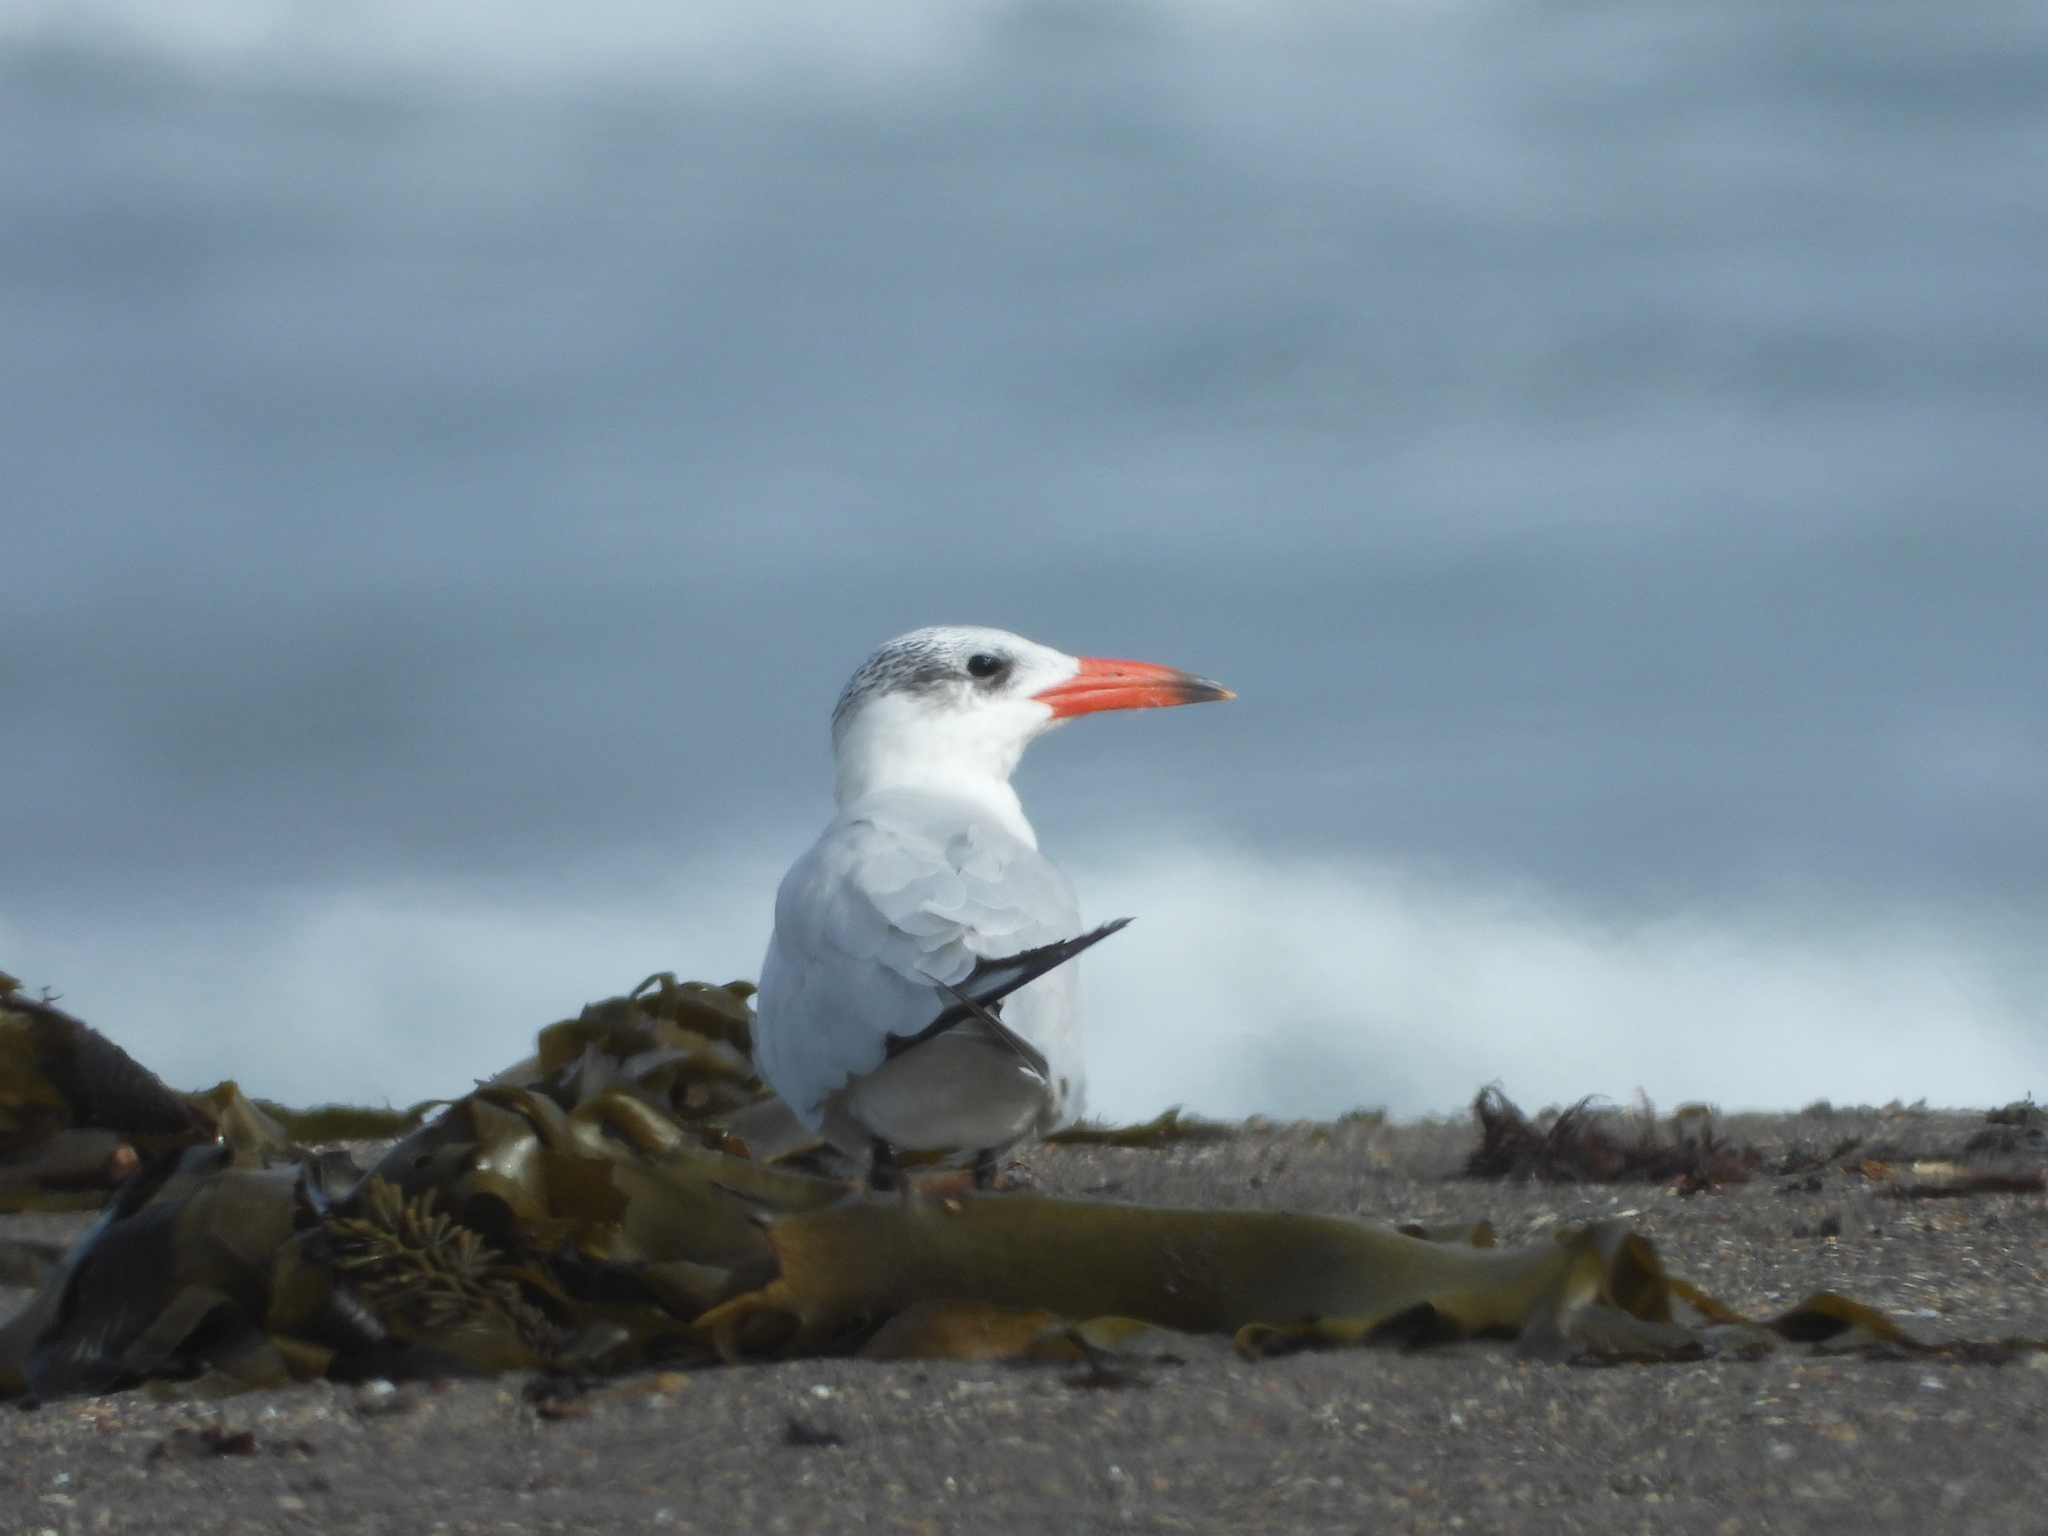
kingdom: Animalia
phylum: Chordata
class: Aves
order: Charadriiformes
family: Laridae
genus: Hydroprogne
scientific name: Hydroprogne caspia
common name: Caspian tern
